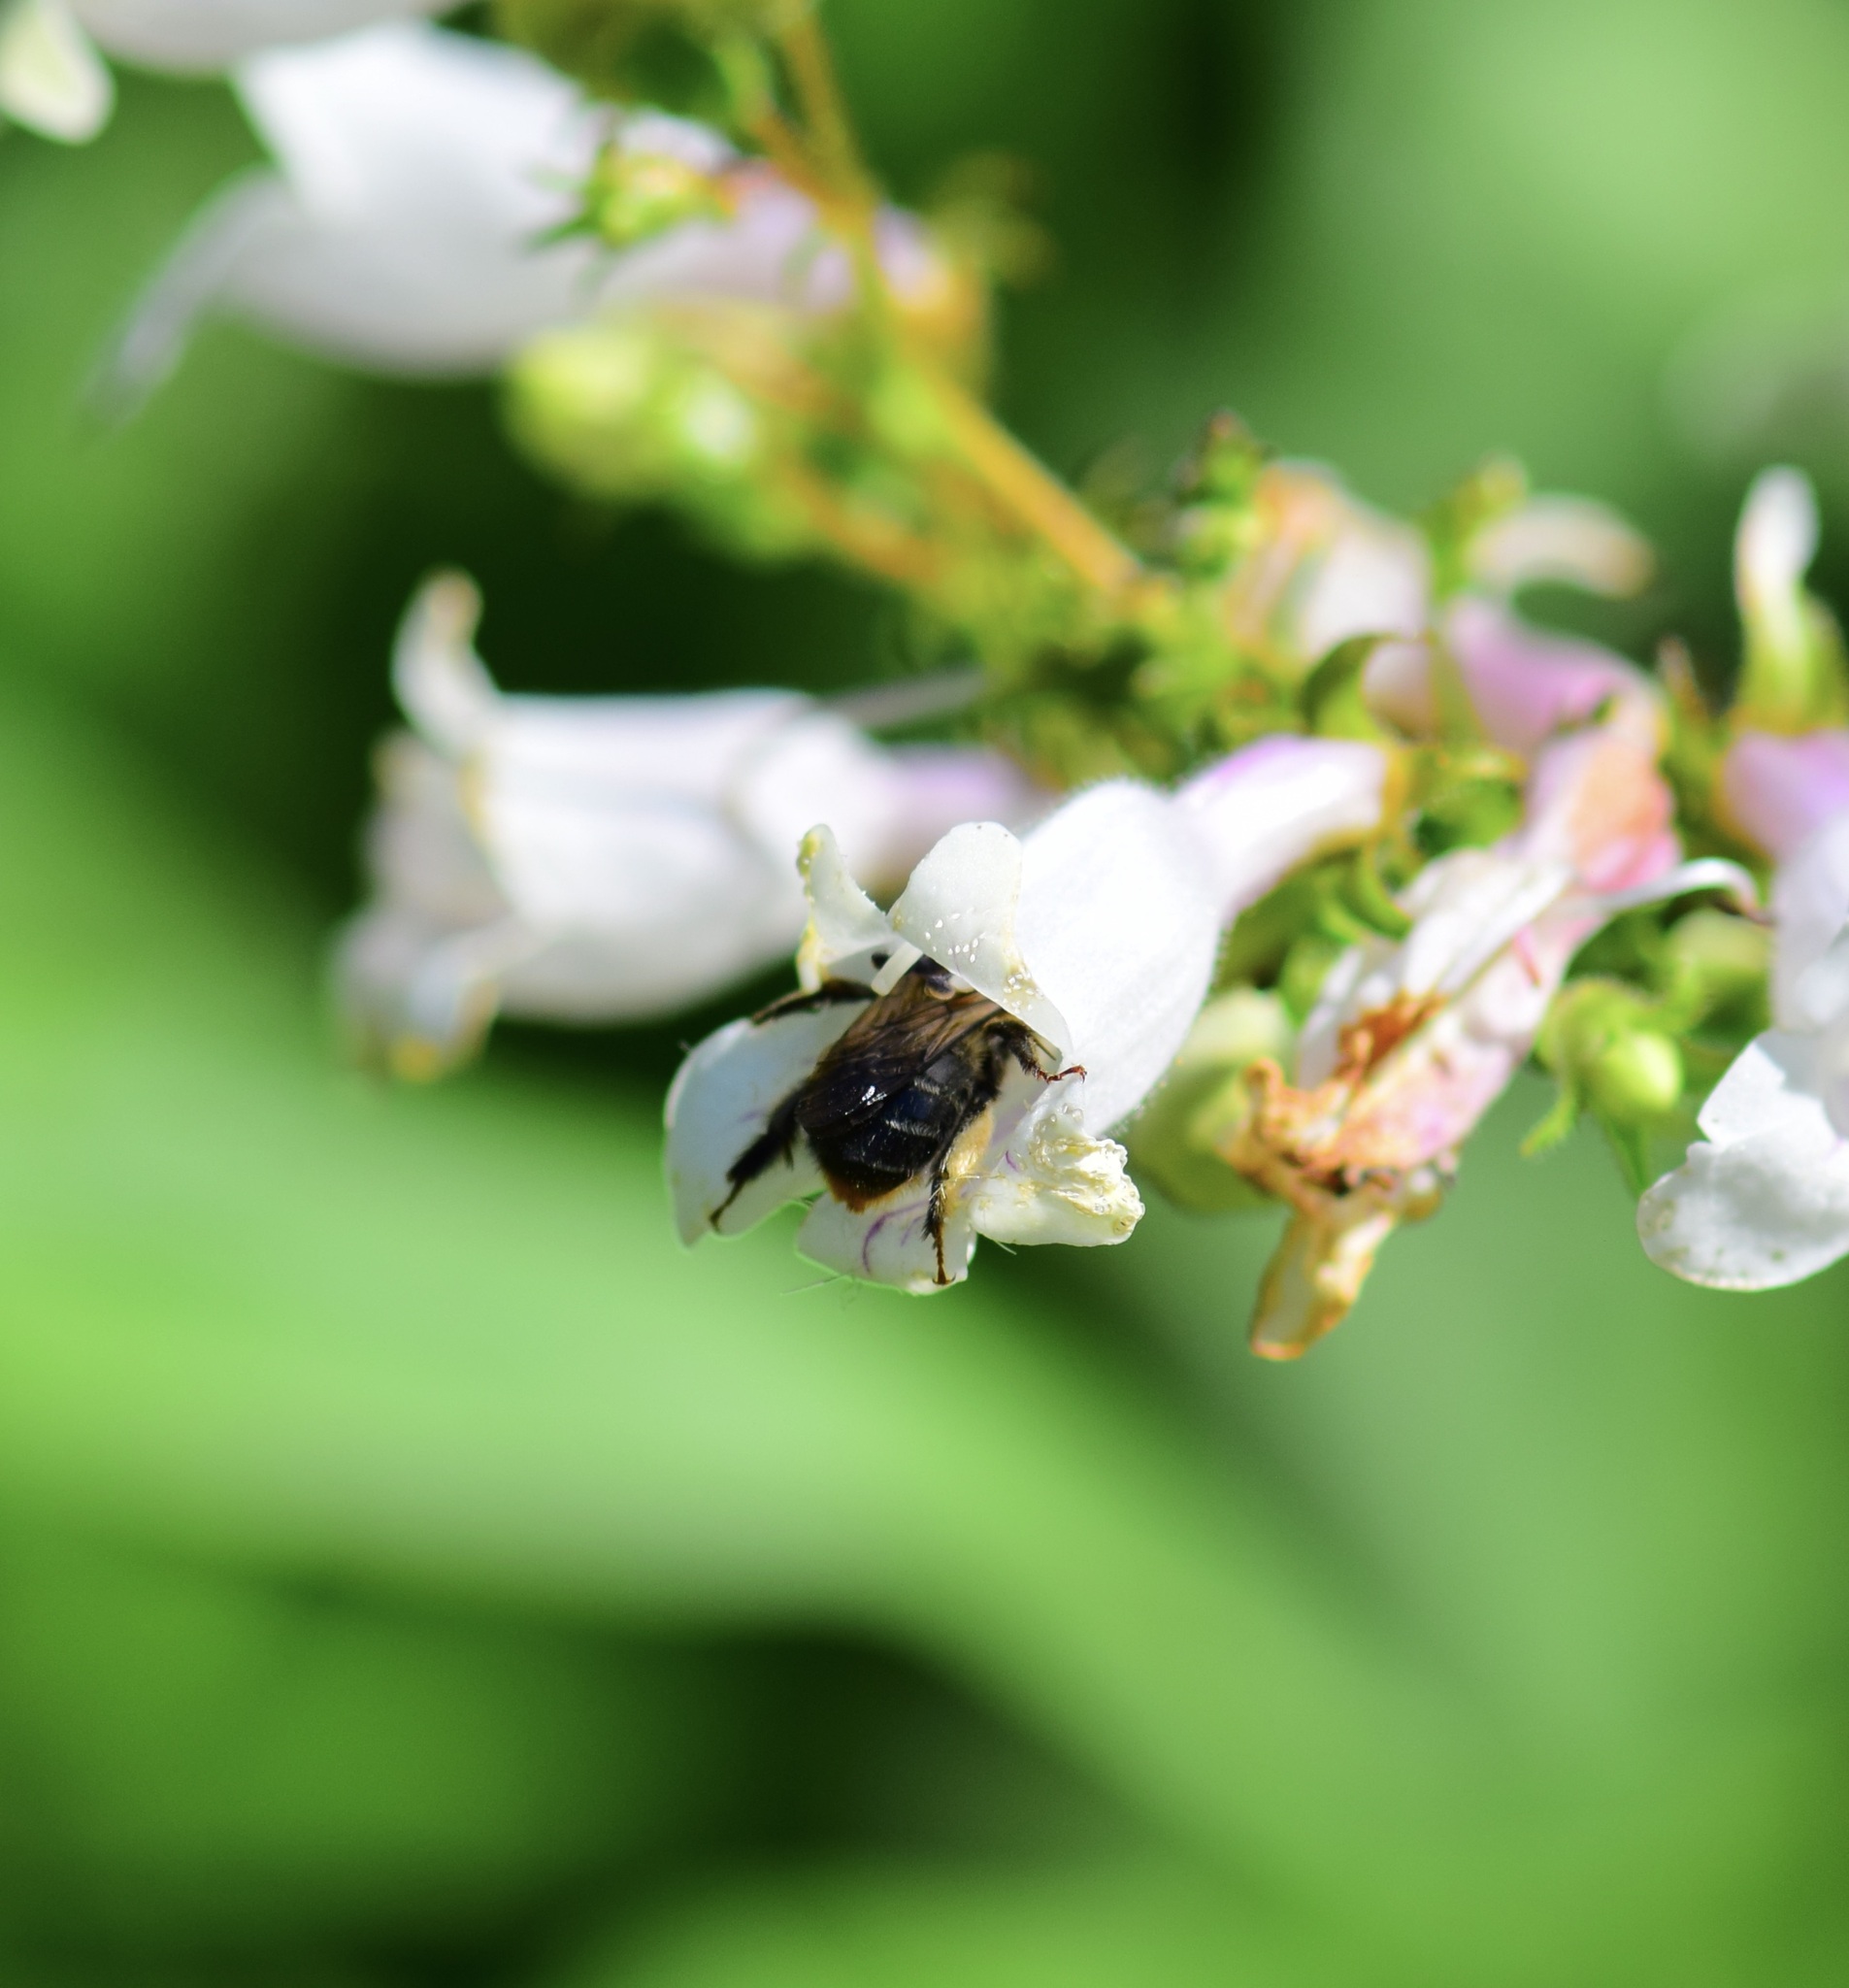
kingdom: Animalia
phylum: Arthropoda
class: Insecta
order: Hymenoptera
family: Apidae
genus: Anthophora
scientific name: Anthophora terminalis
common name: Orange-tipped wood-digger bee
